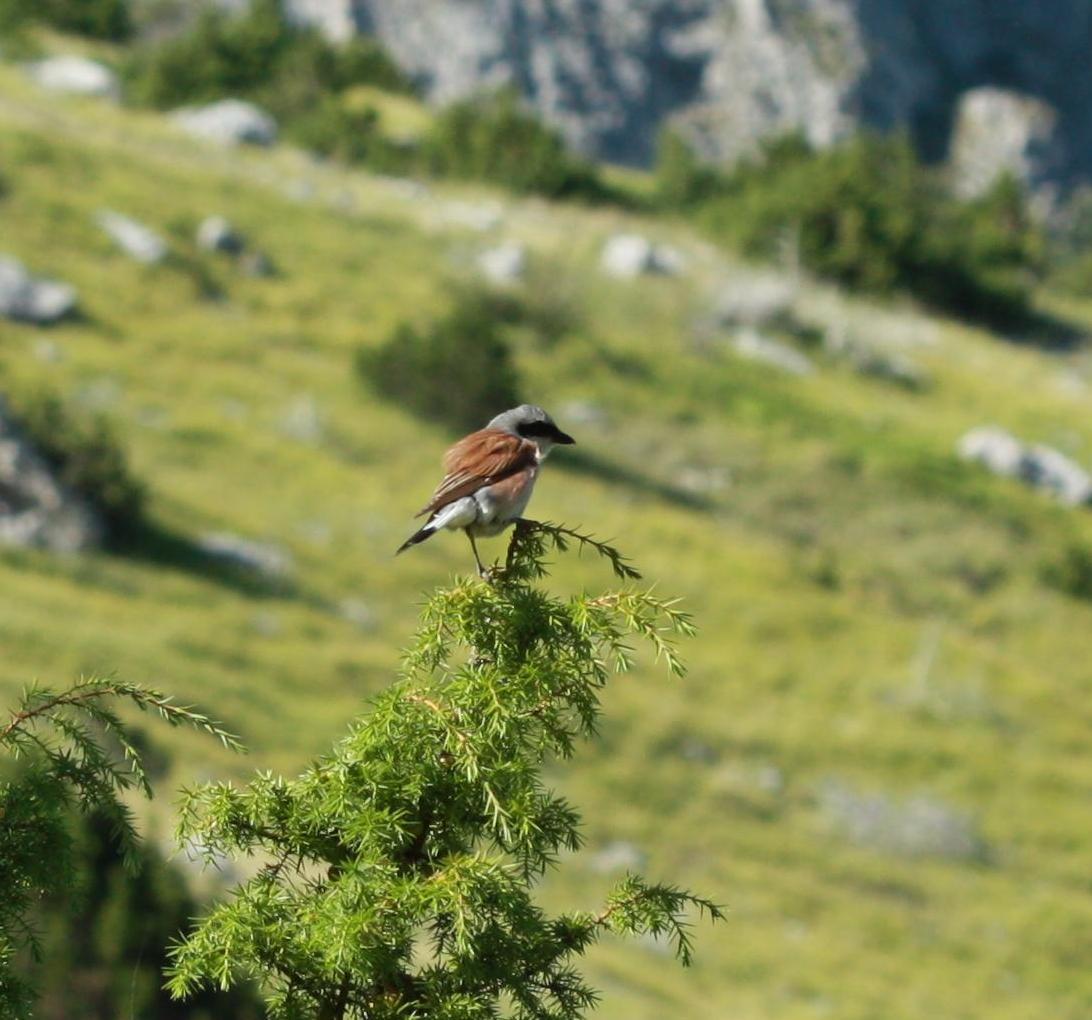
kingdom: Animalia
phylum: Chordata
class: Aves
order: Passeriformes
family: Laniidae
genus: Lanius
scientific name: Lanius collurio
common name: Red-backed shrike
